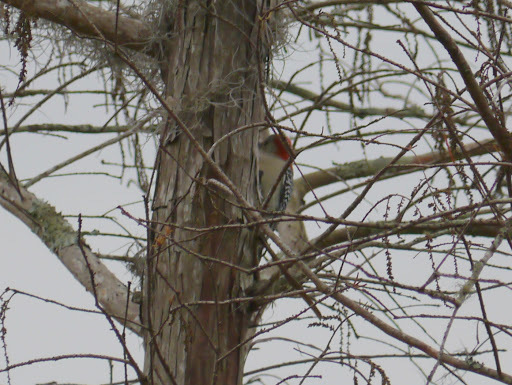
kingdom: Animalia
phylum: Chordata
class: Aves
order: Piciformes
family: Picidae
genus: Melanerpes
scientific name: Melanerpes carolinus
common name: Red-bellied woodpecker
